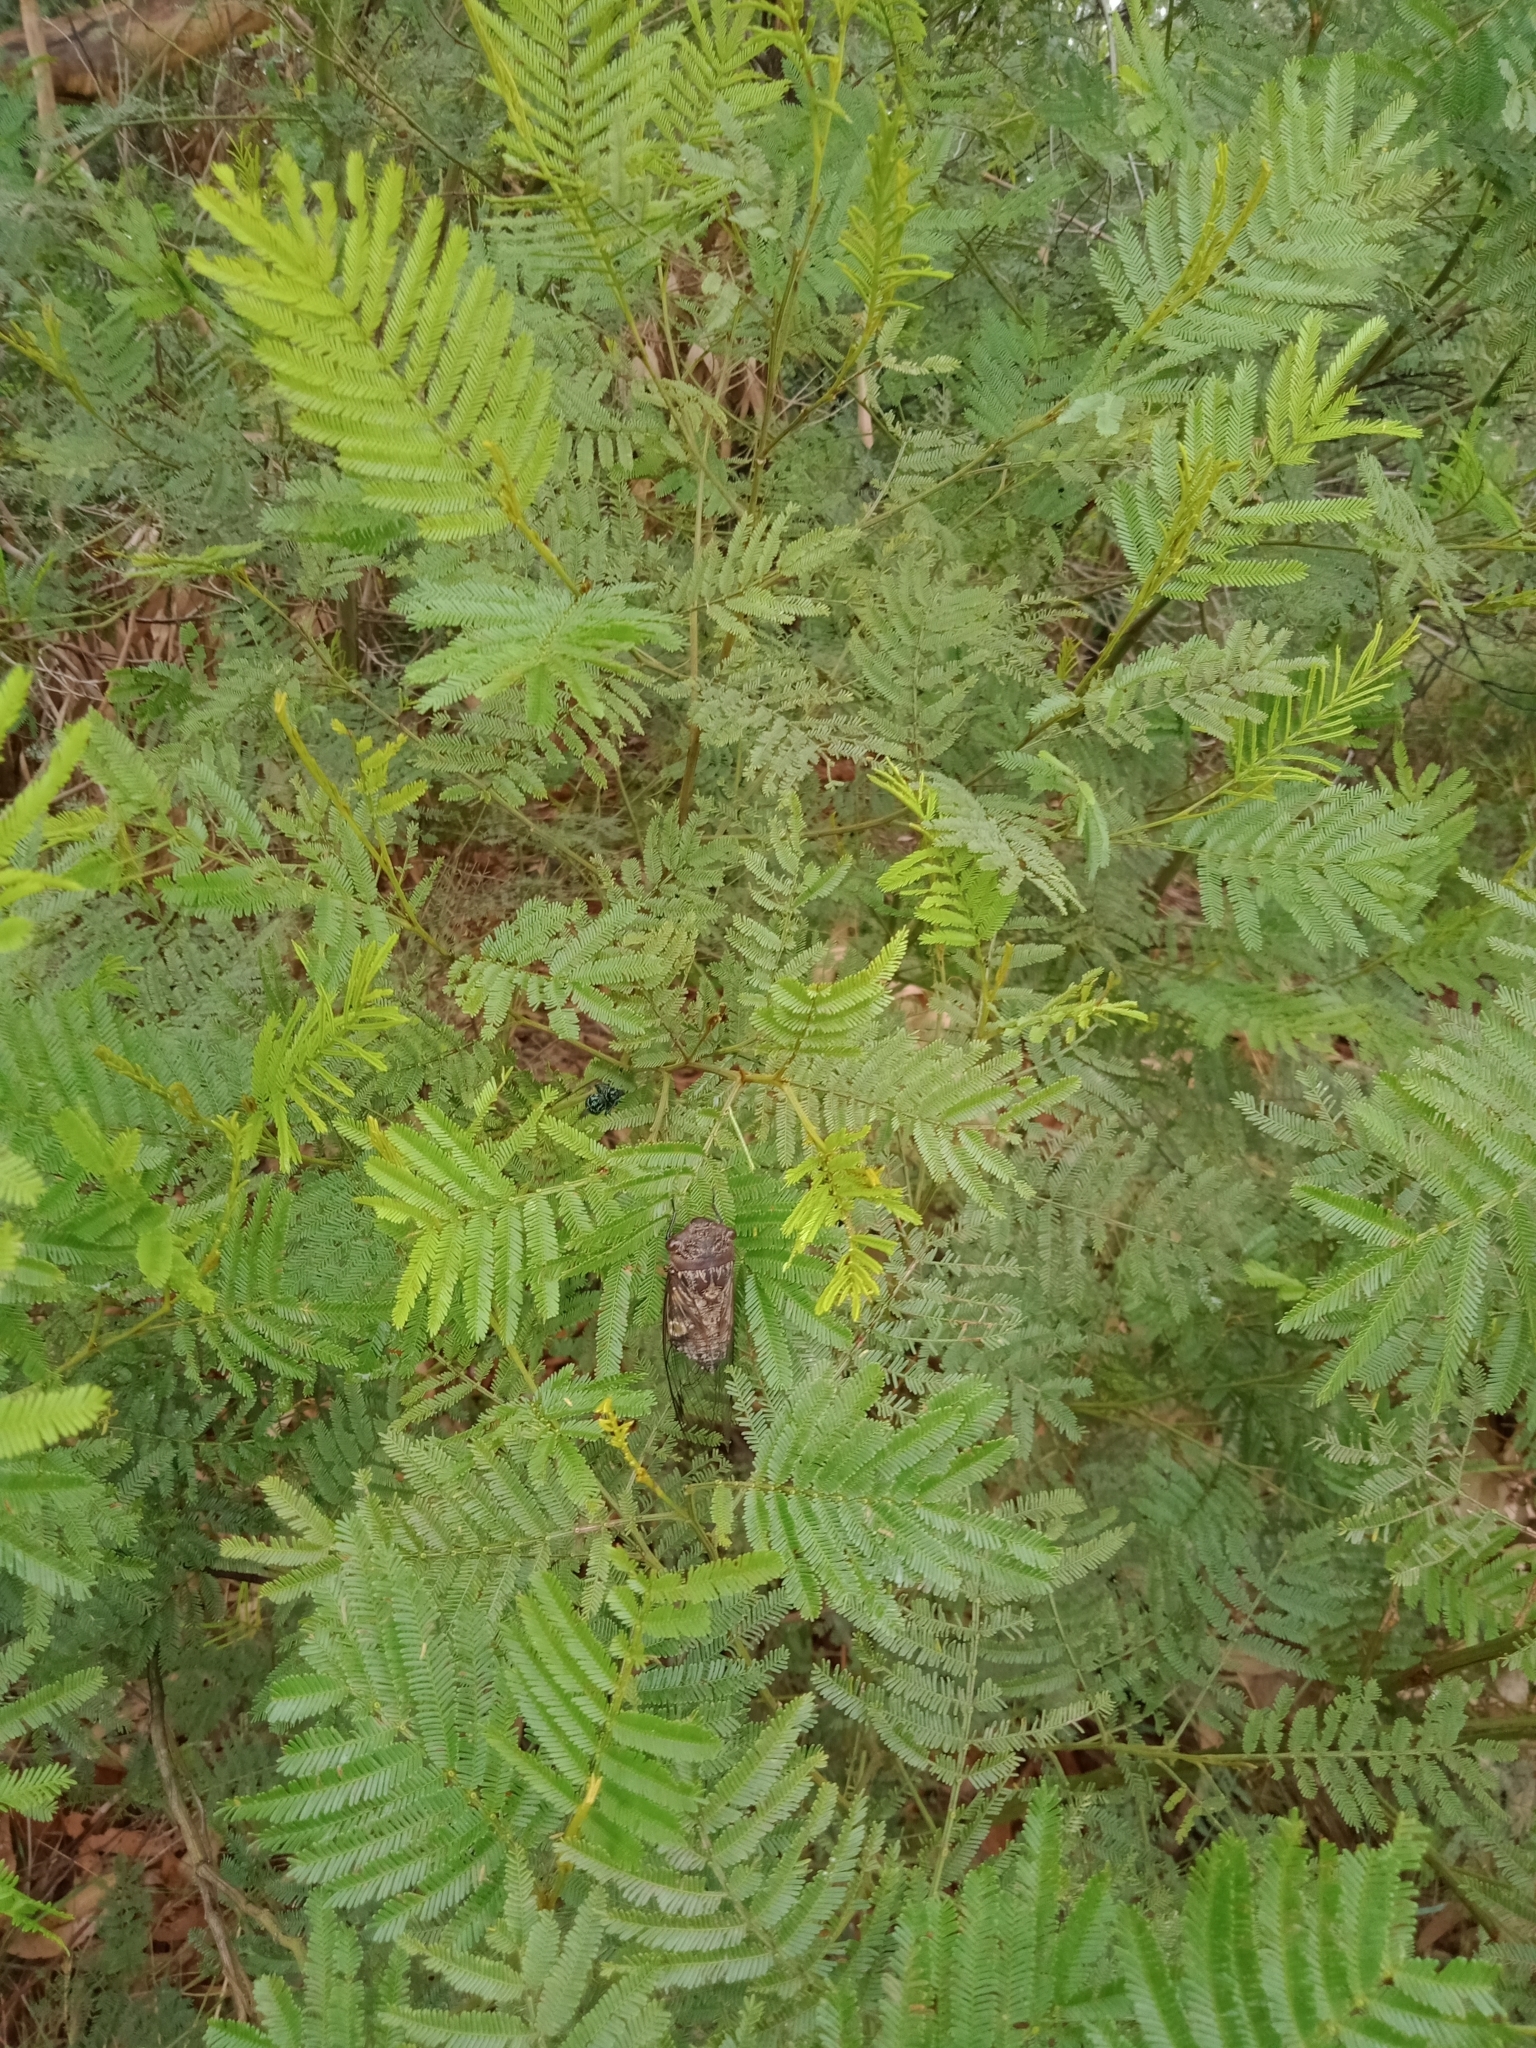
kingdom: Animalia
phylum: Arthropoda
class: Insecta
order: Hemiptera
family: Cicadidae
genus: Psaltoda
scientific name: Psaltoda plaga
